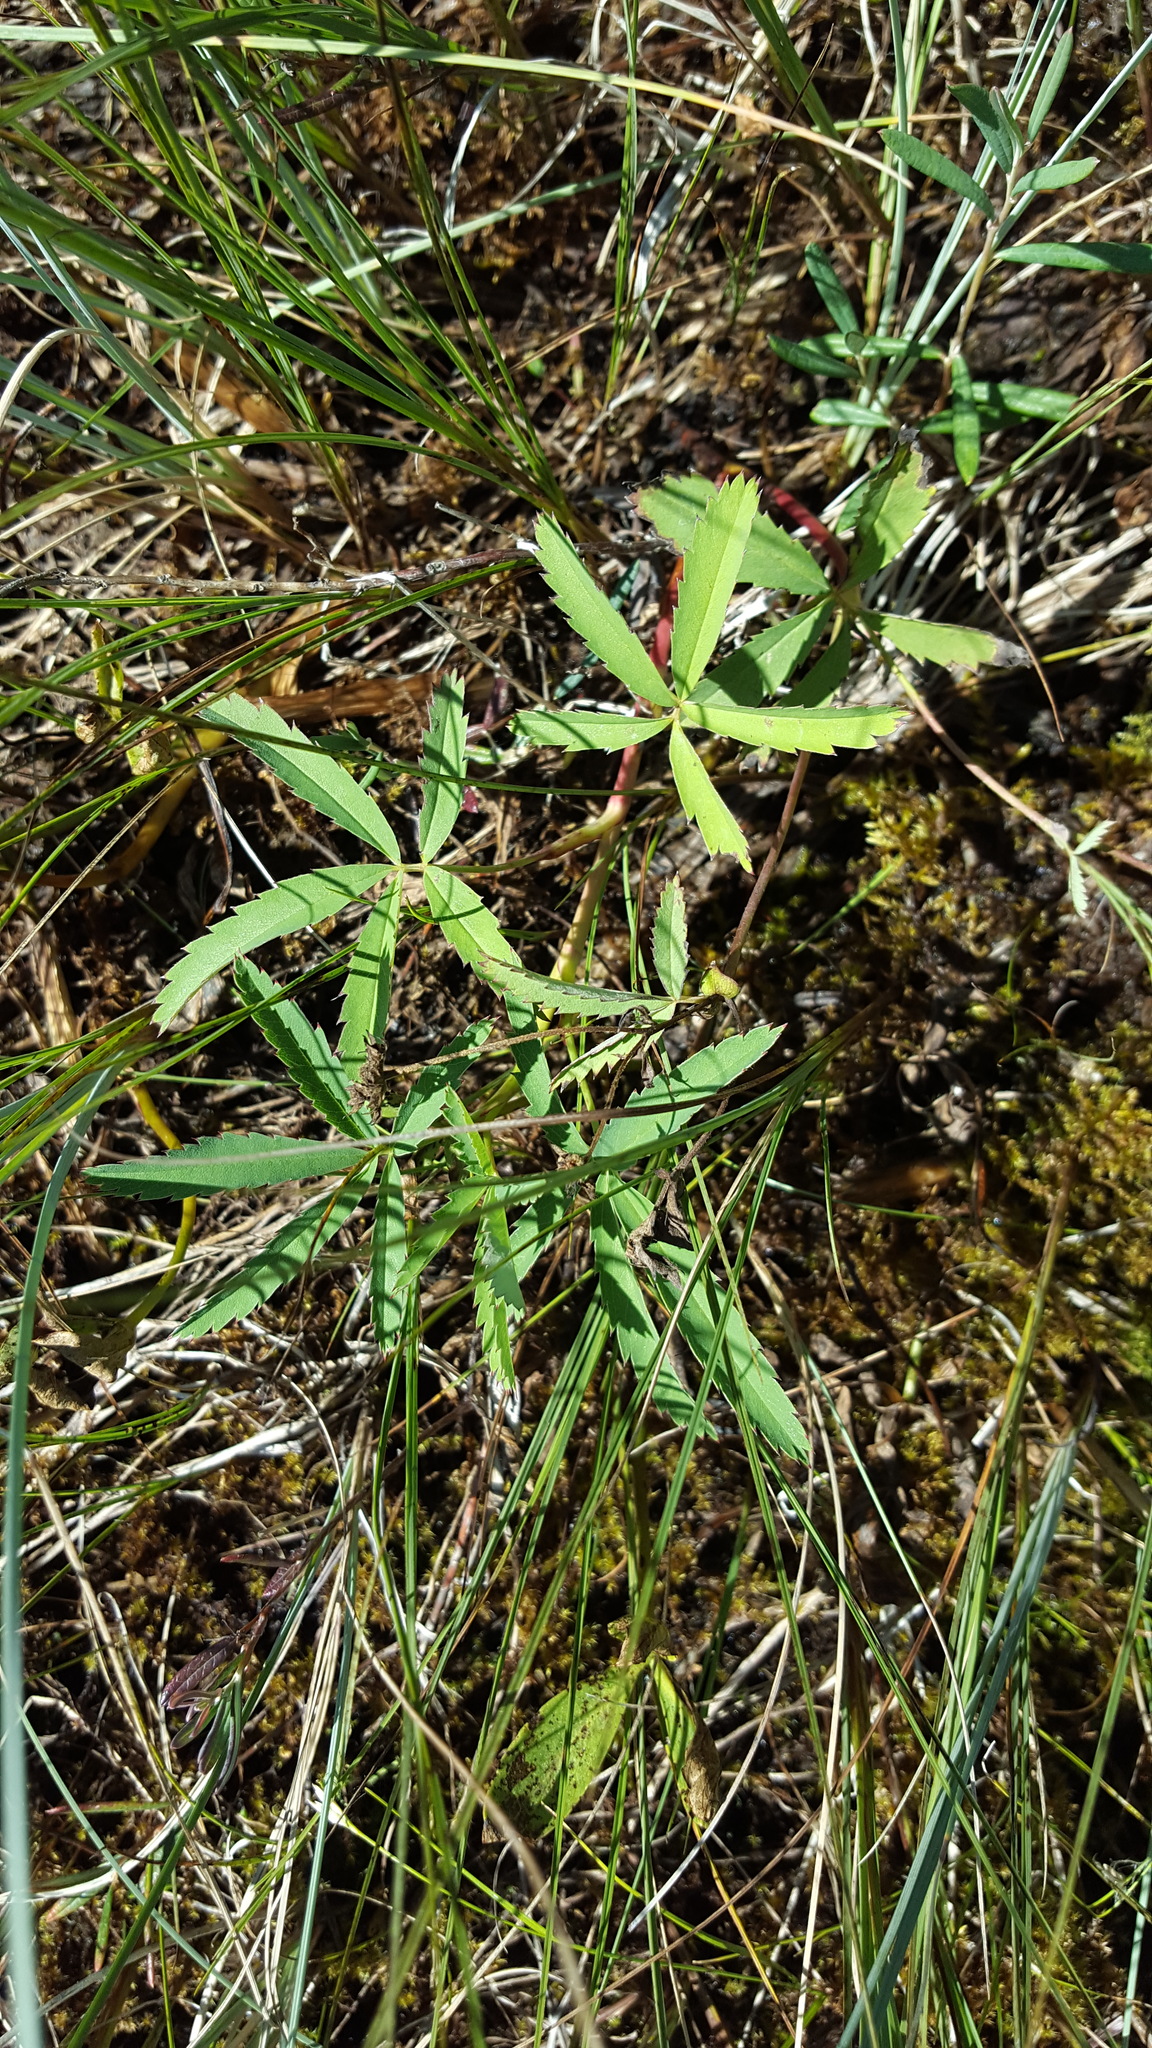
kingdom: Plantae
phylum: Tracheophyta
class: Magnoliopsida
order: Rosales
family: Rosaceae
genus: Comarum
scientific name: Comarum palustre
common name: Marsh cinquefoil
